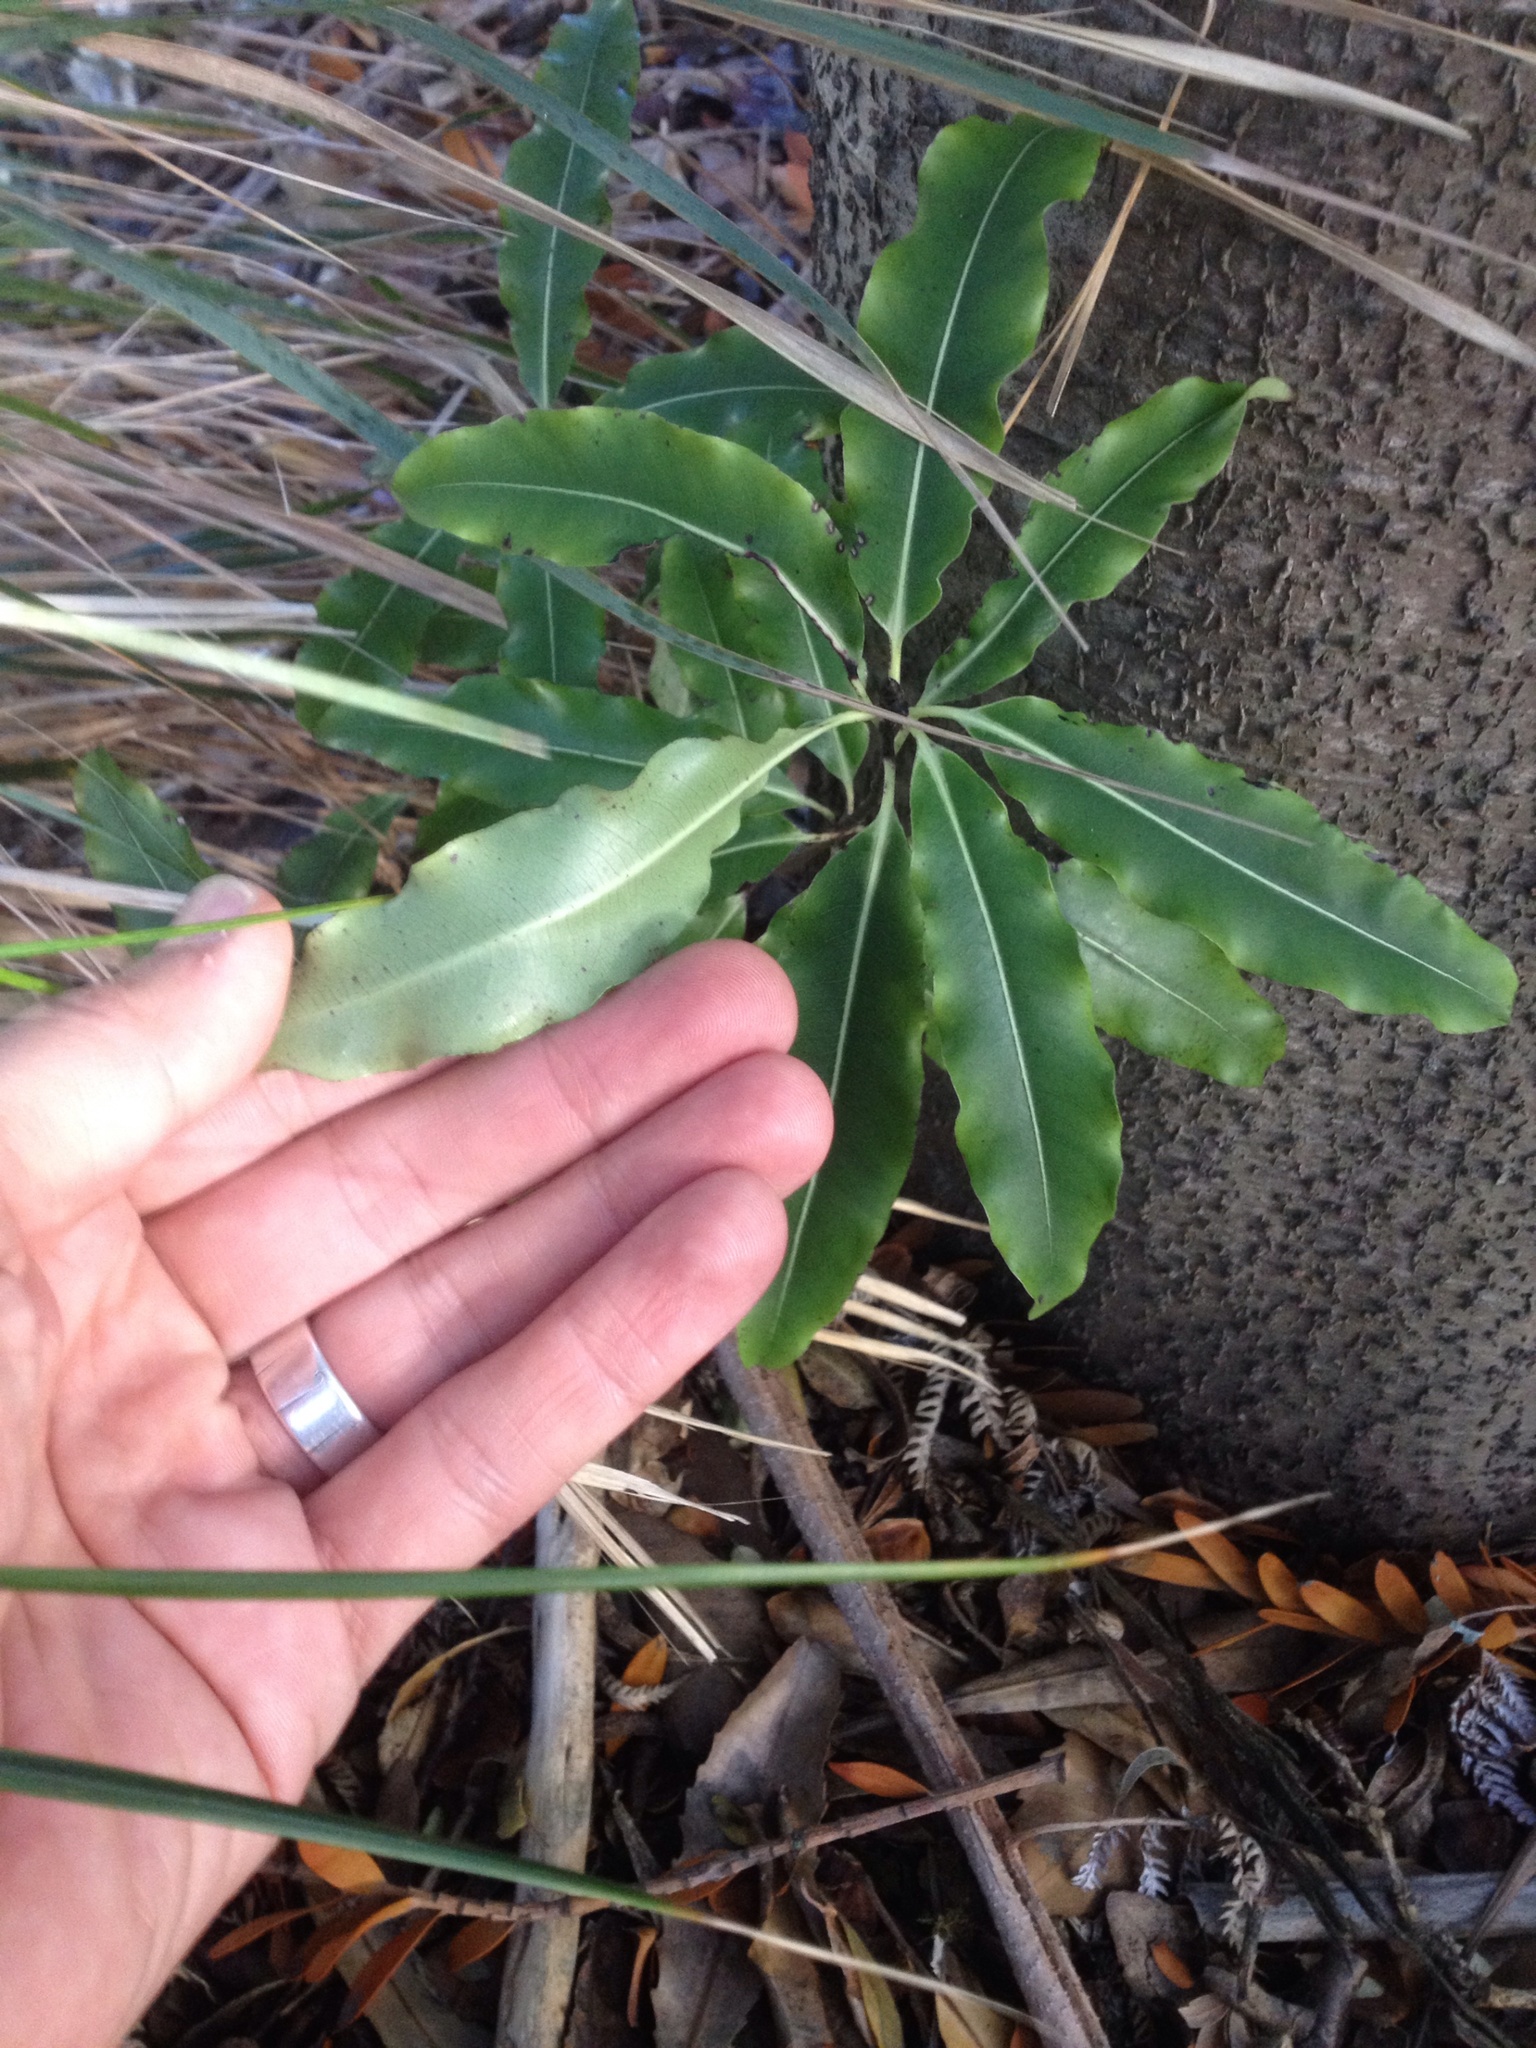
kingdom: Plantae
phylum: Tracheophyta
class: Magnoliopsida
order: Apiales
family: Pittosporaceae
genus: Pittosporum
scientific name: Pittosporum eugenioides
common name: Lemonwood
